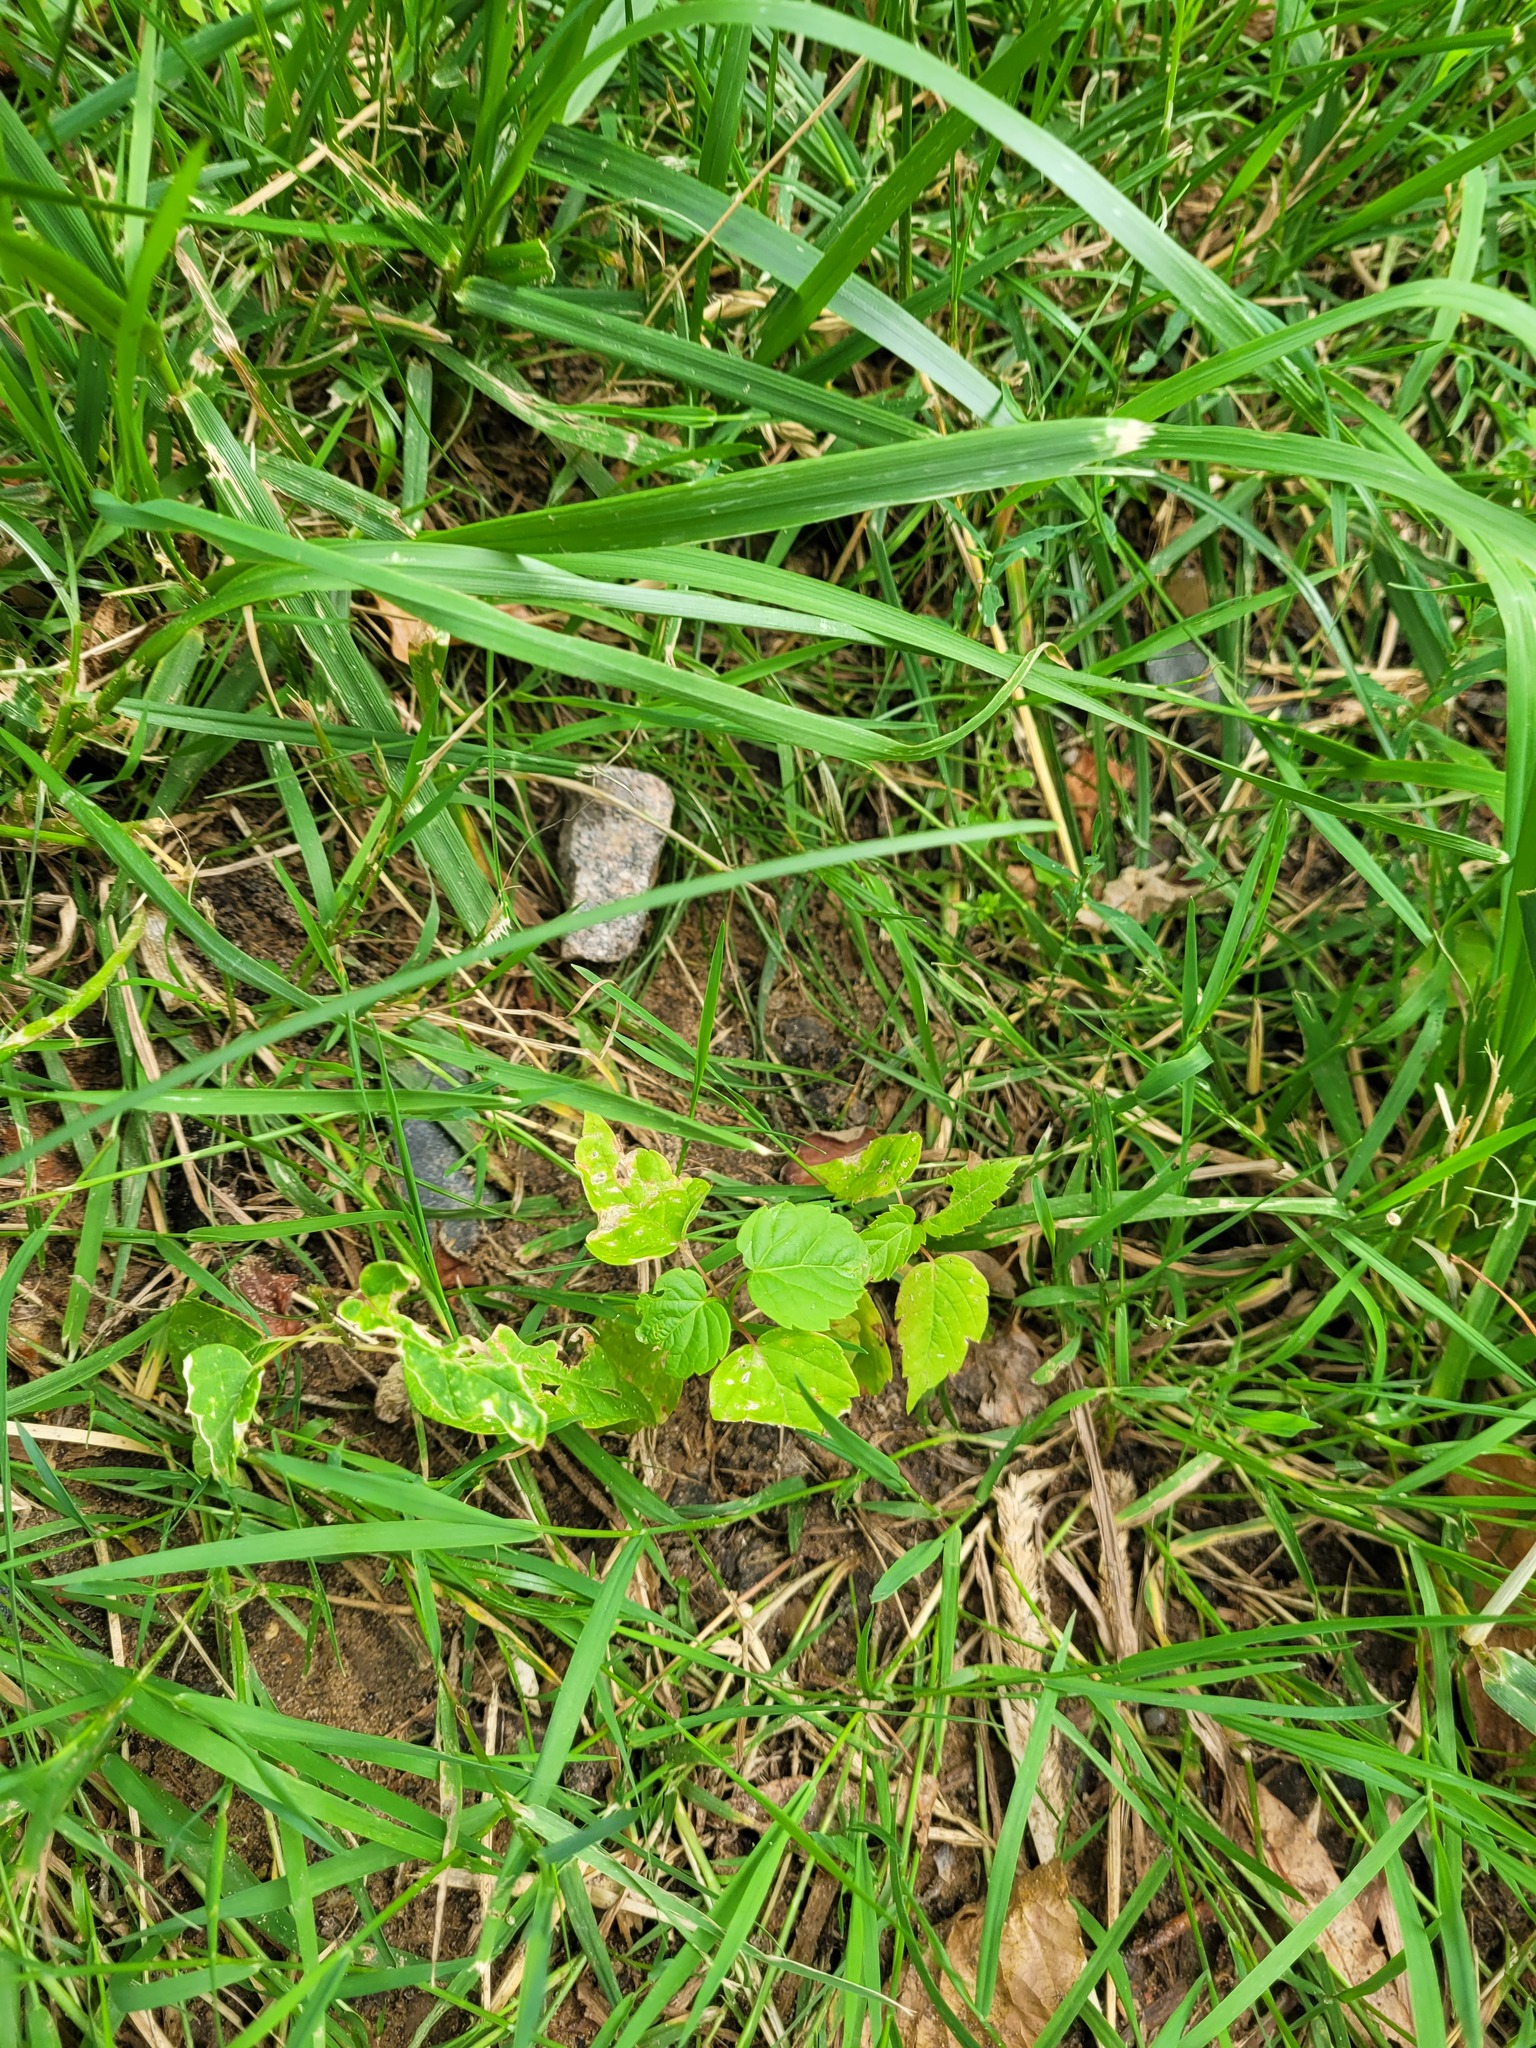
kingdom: Plantae
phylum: Tracheophyta
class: Magnoliopsida
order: Sapindales
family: Sapindaceae
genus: Acer
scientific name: Acer negundo
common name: Ashleaf maple
